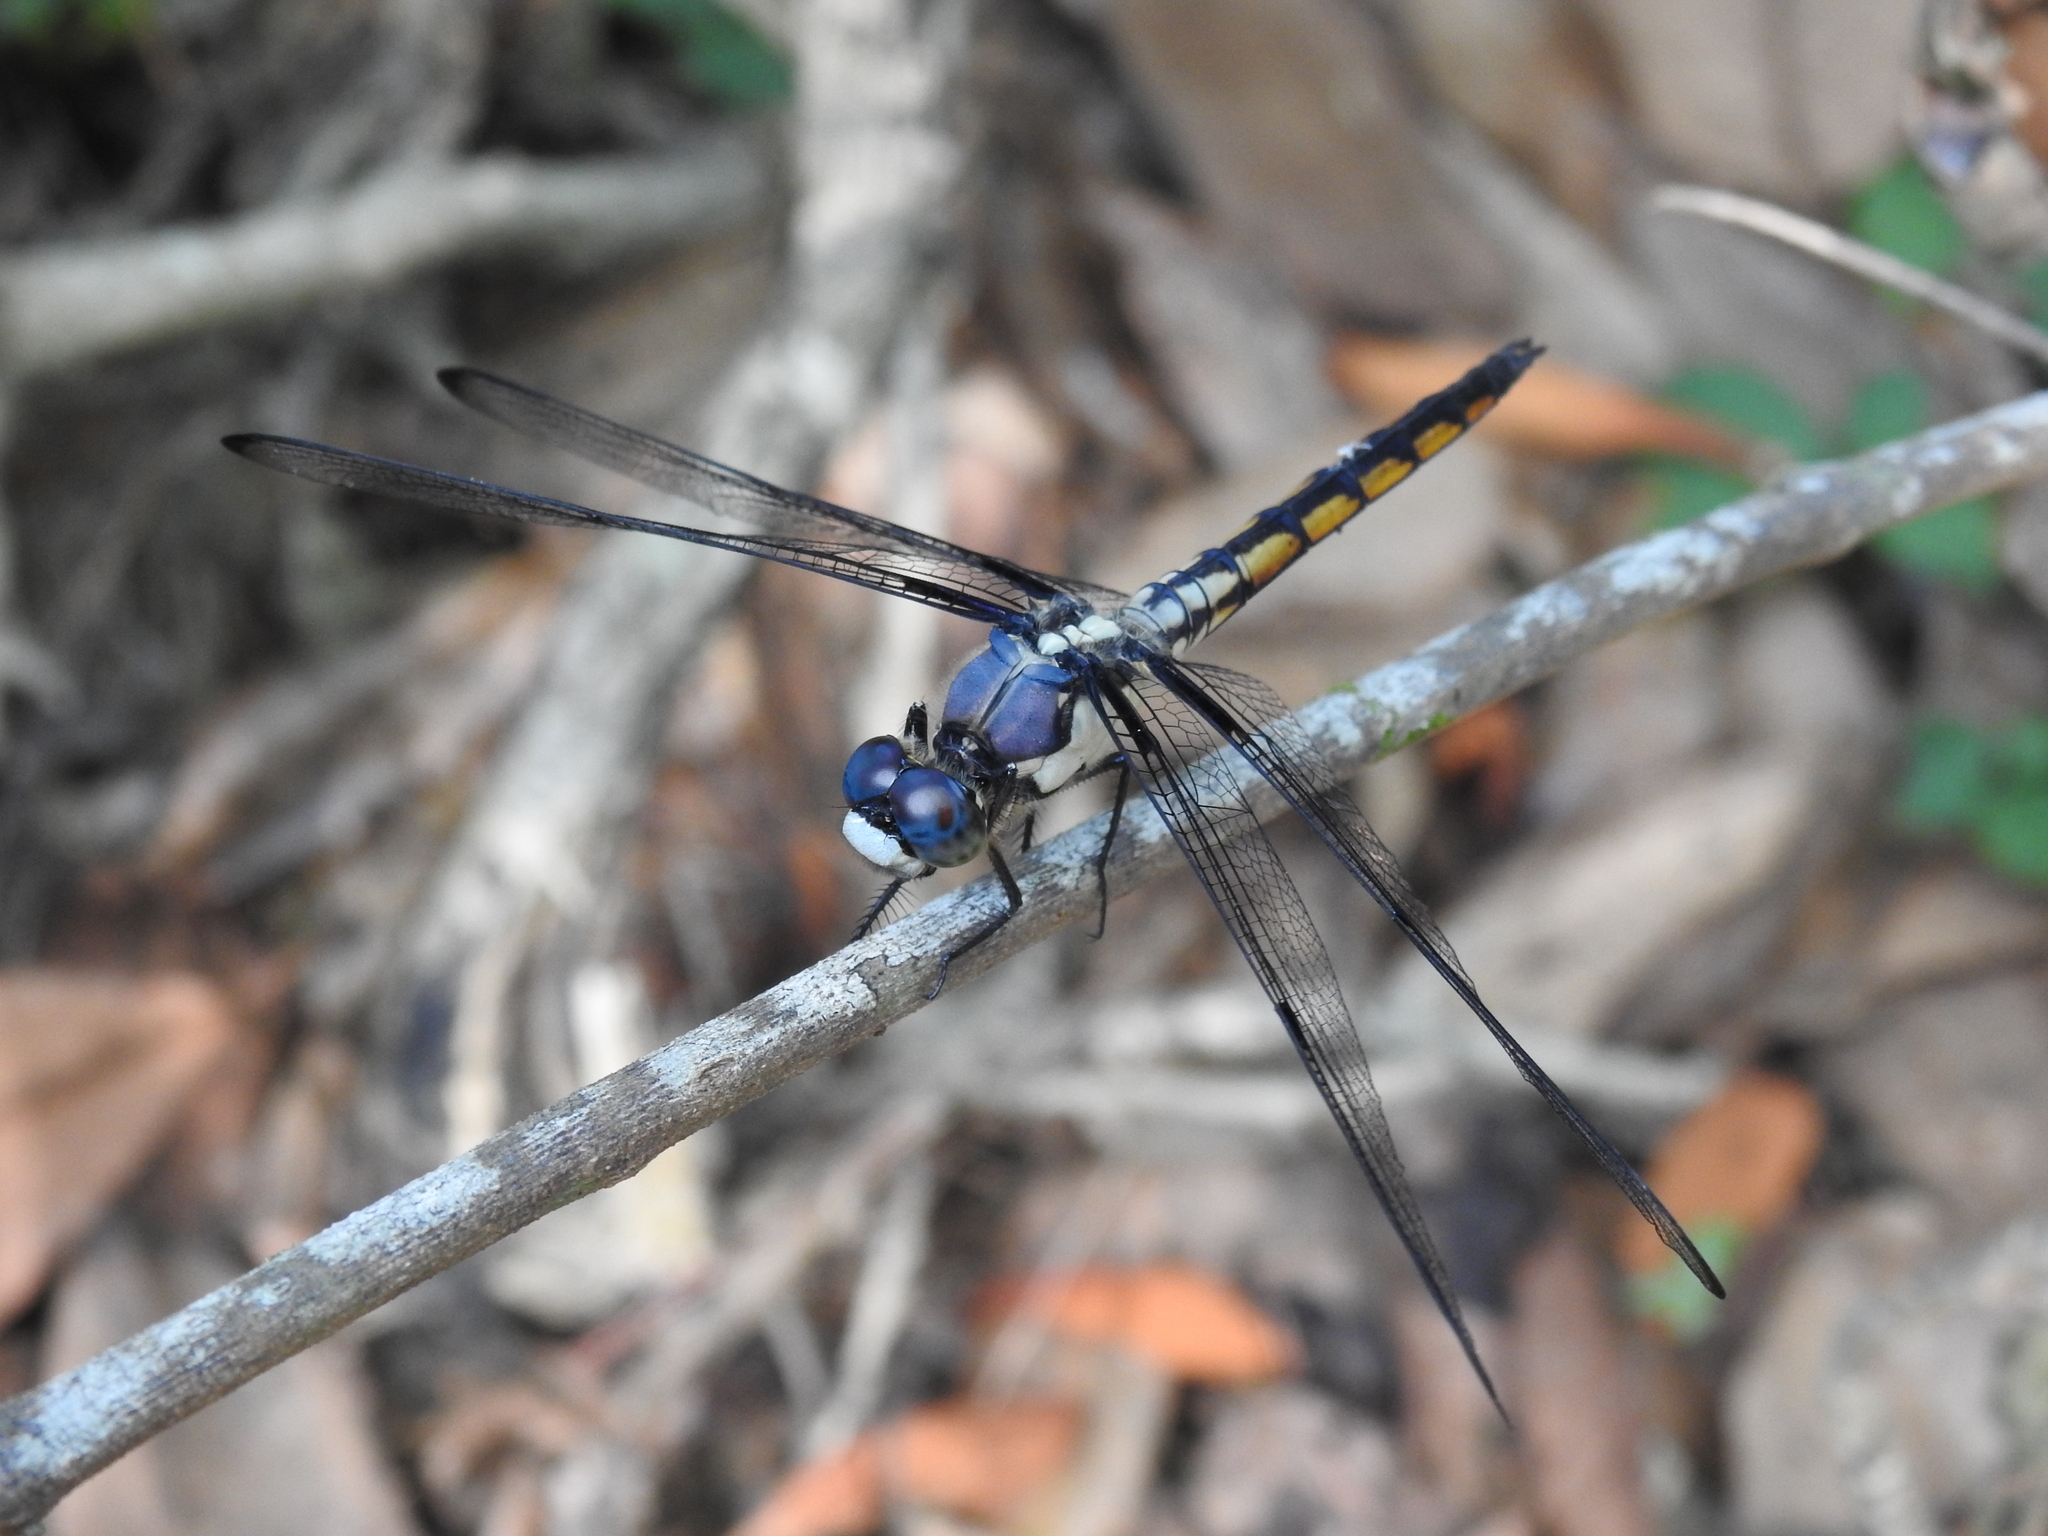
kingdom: Animalia
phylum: Arthropoda
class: Insecta
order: Odonata
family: Libellulidae
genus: Libellula
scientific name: Libellula vibrans
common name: Great blue skimmer
